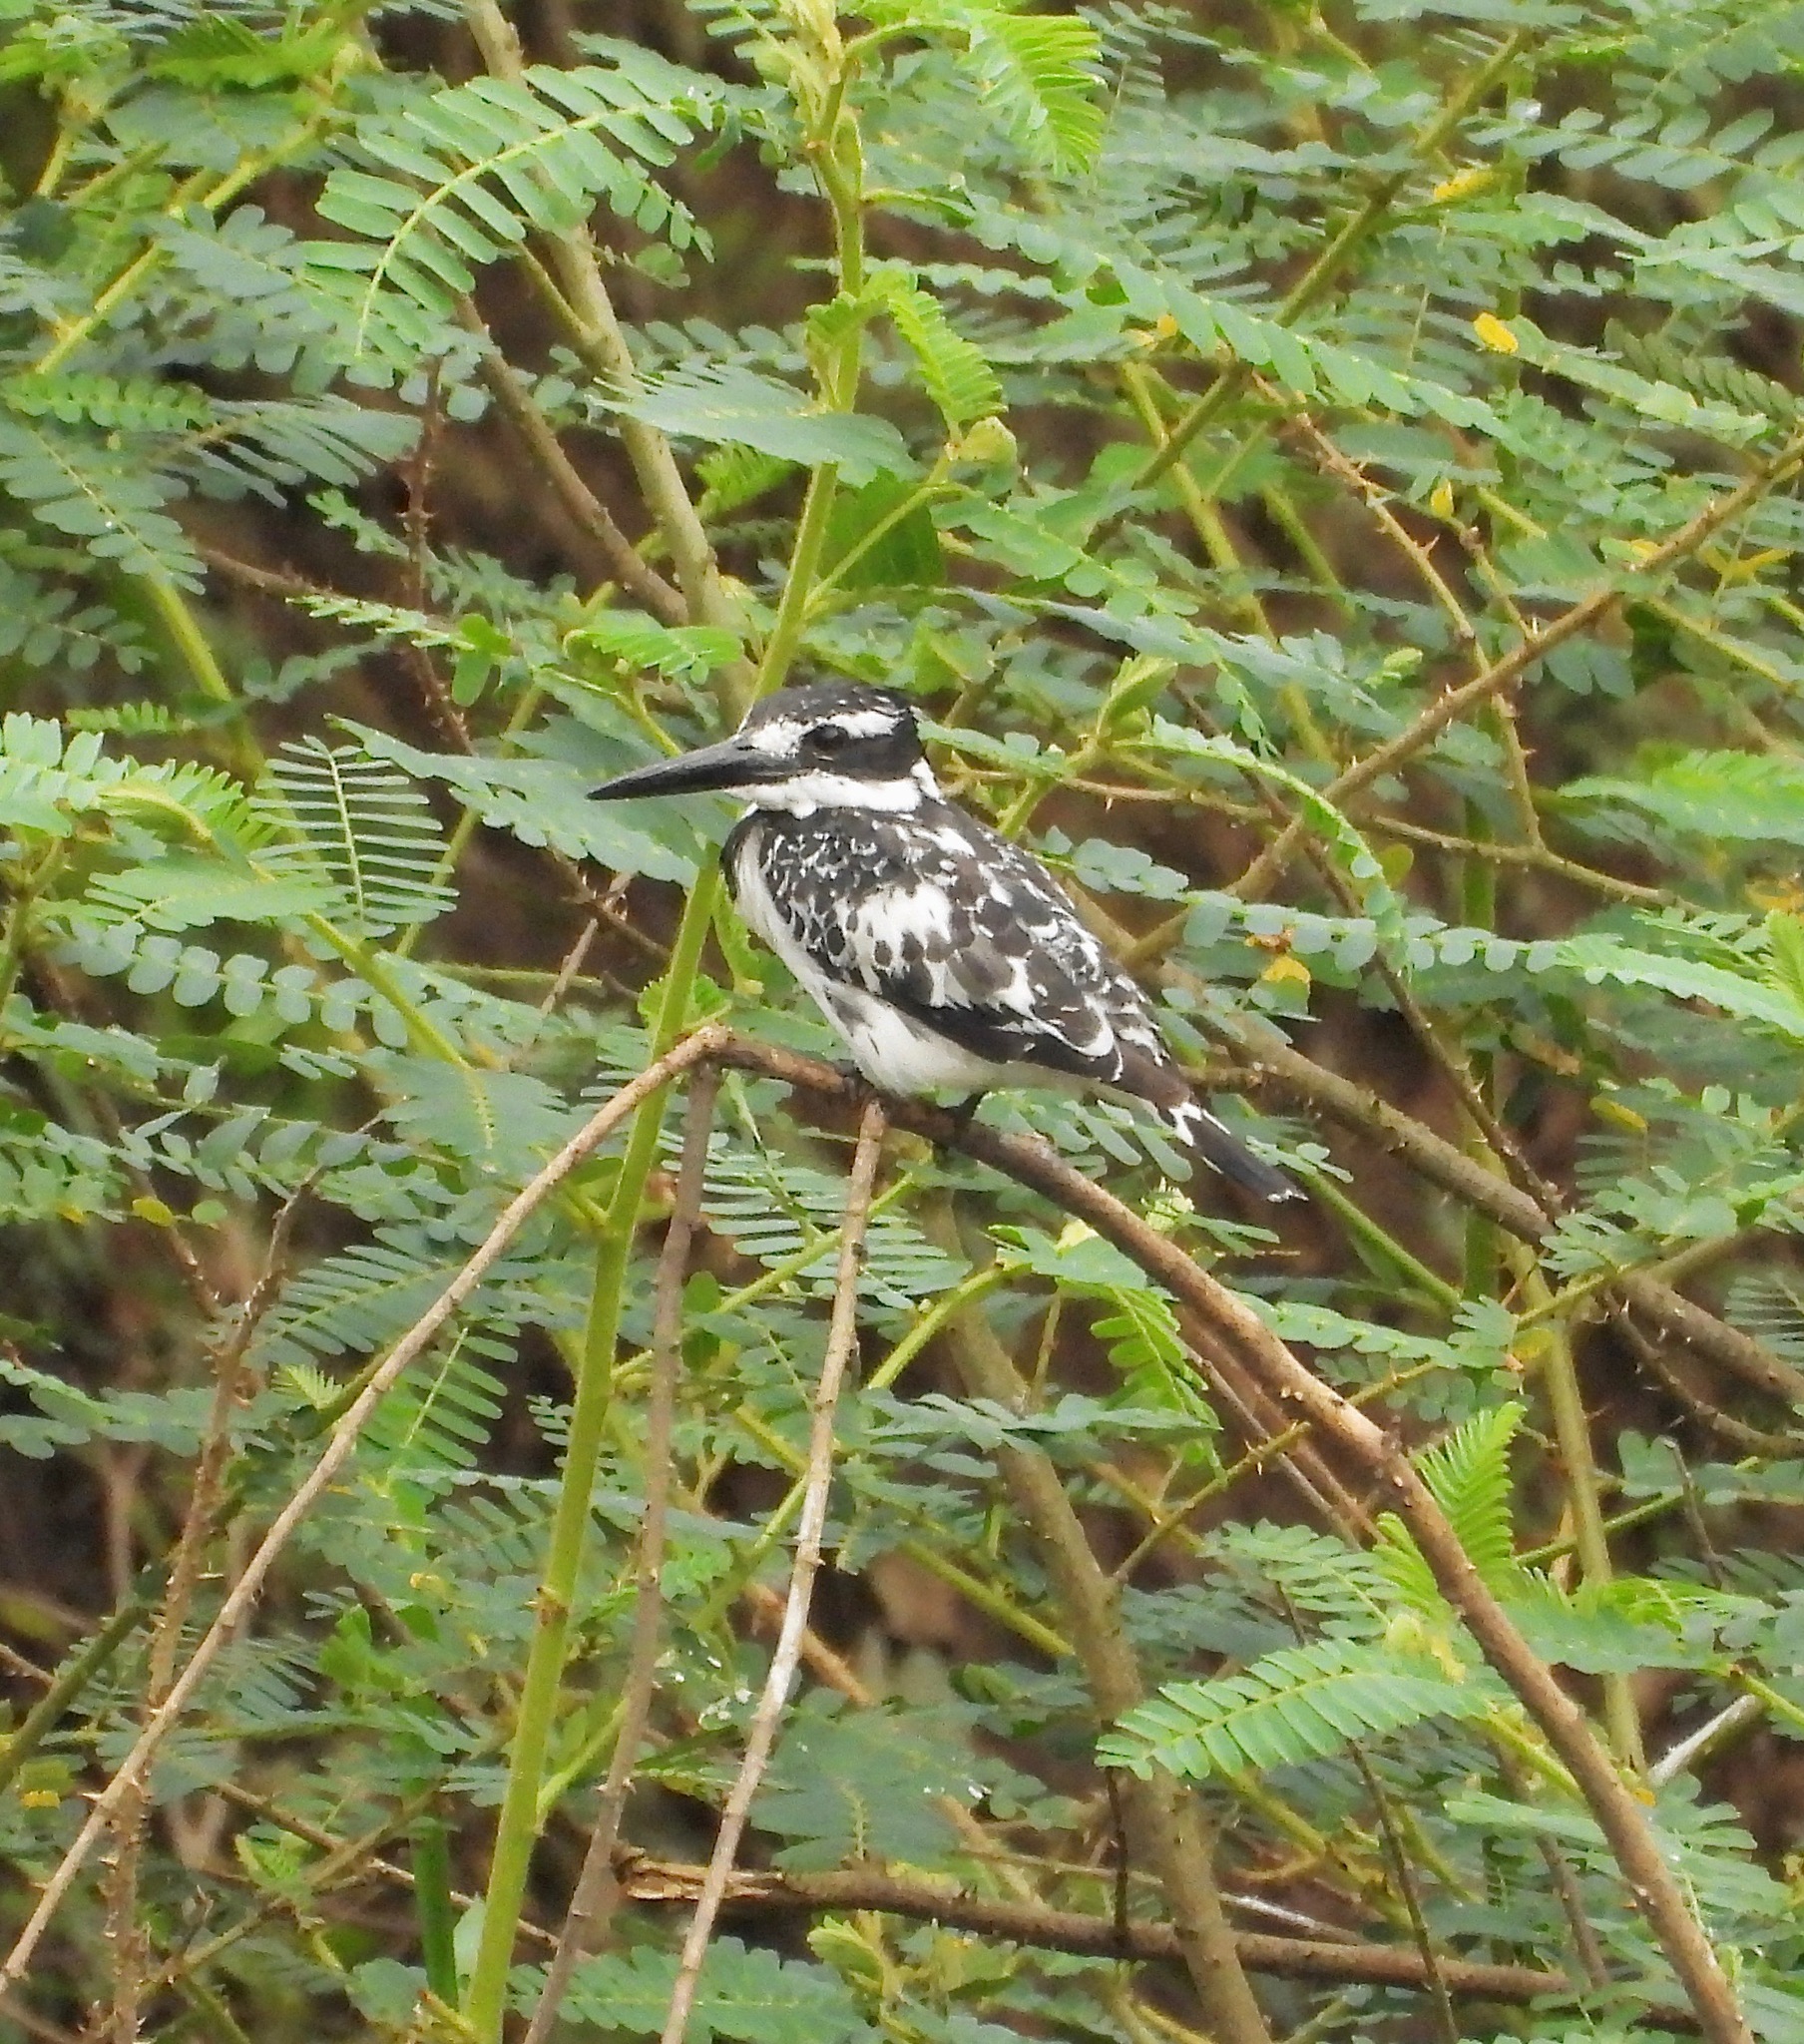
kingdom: Animalia
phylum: Chordata
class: Aves
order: Coraciiformes
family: Alcedinidae
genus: Ceryle
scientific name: Ceryle rudis
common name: Pied kingfisher
